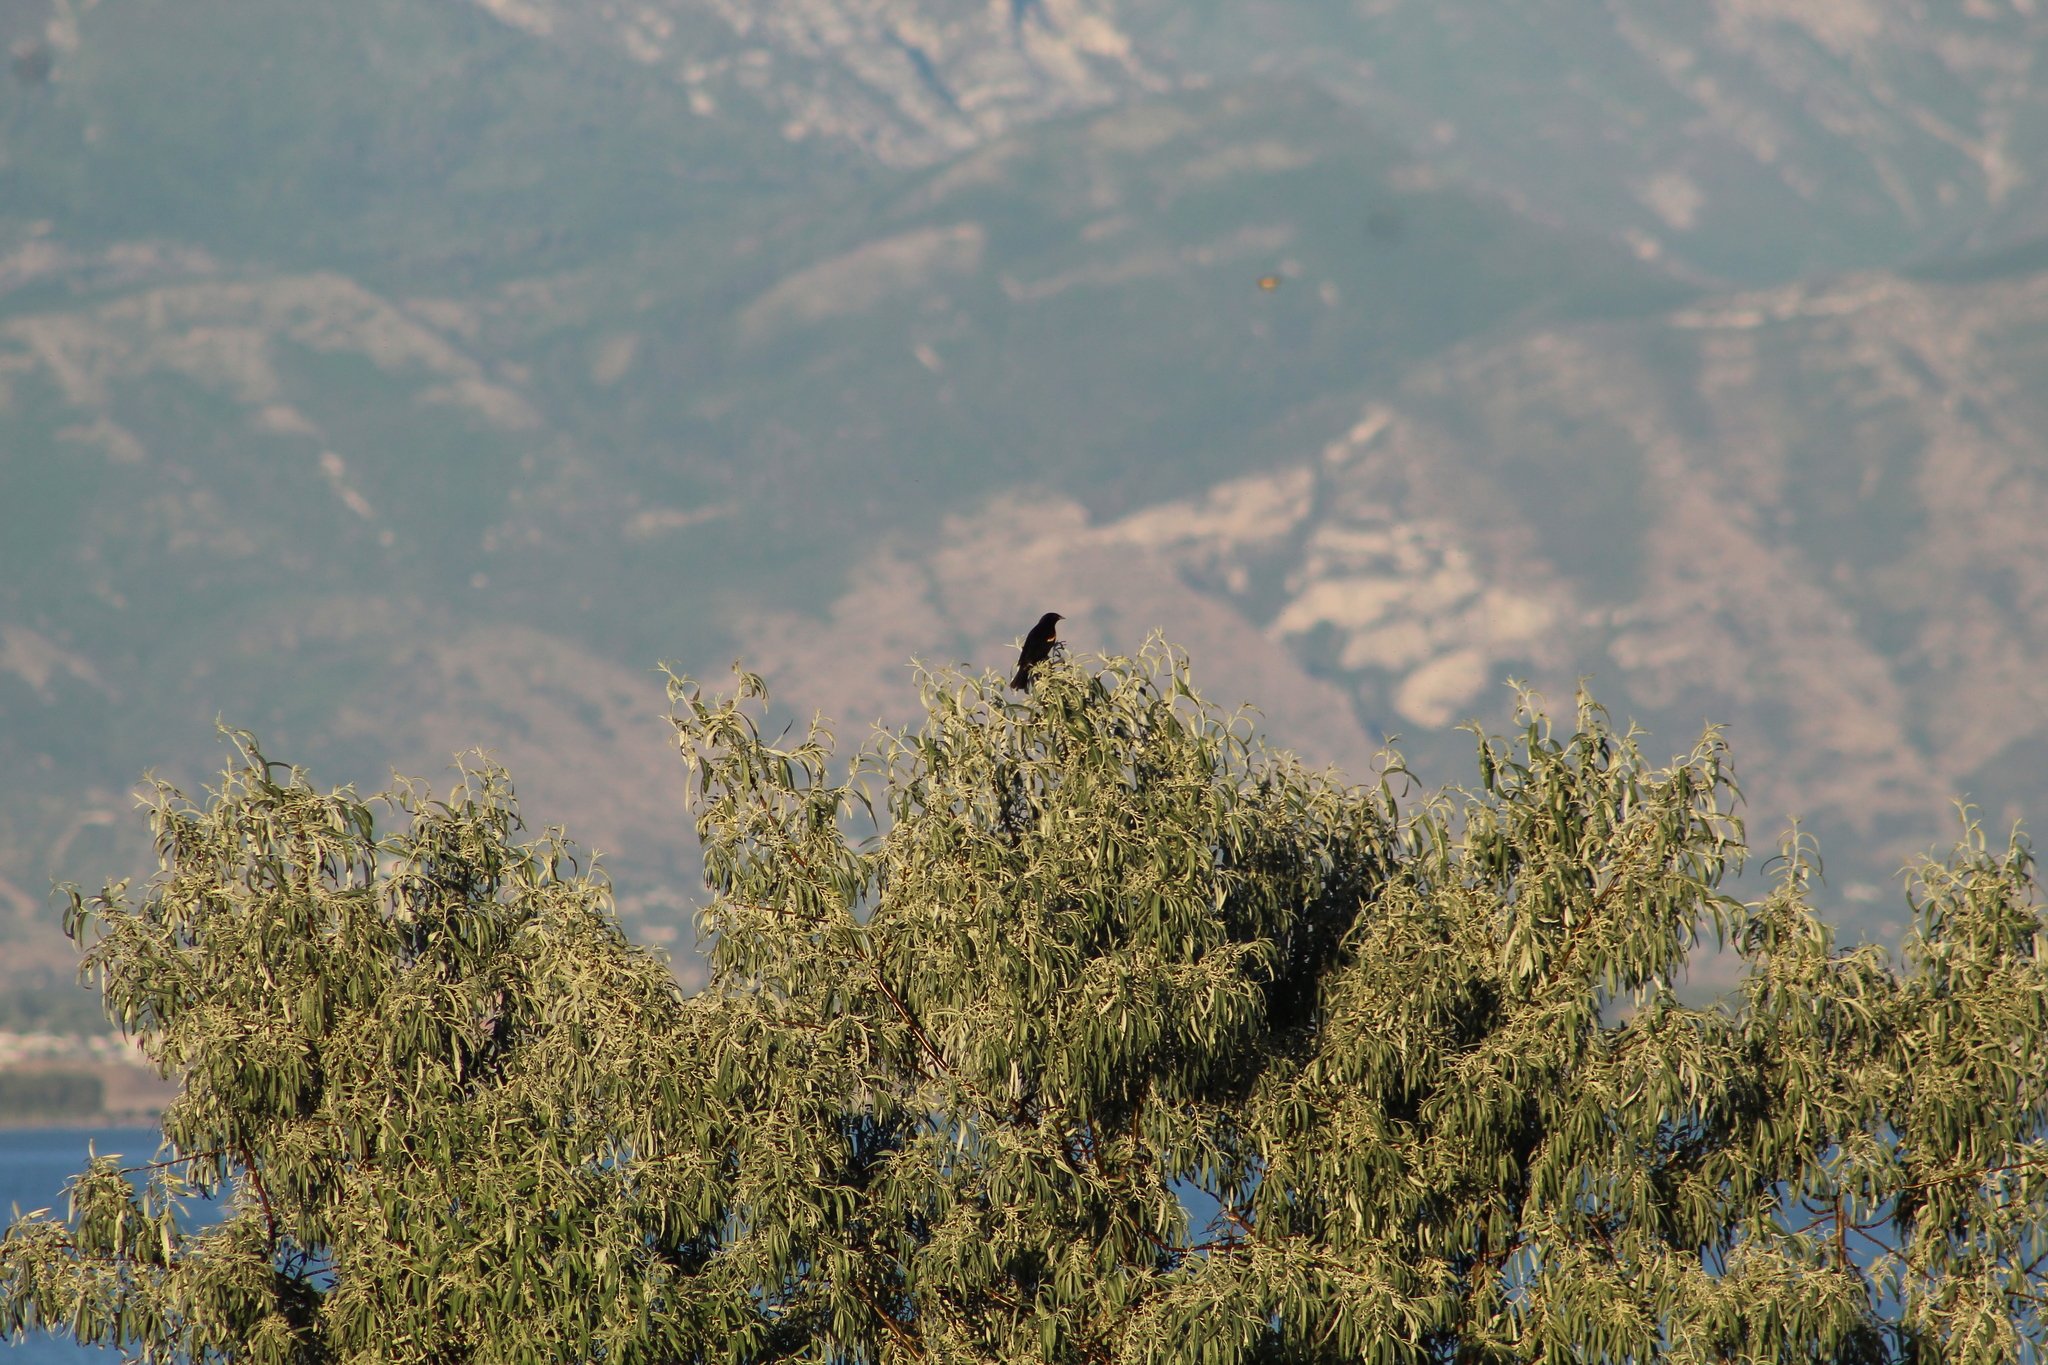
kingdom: Animalia
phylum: Chordata
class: Aves
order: Passeriformes
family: Icteridae
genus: Agelaius
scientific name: Agelaius phoeniceus
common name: Red-winged blackbird
